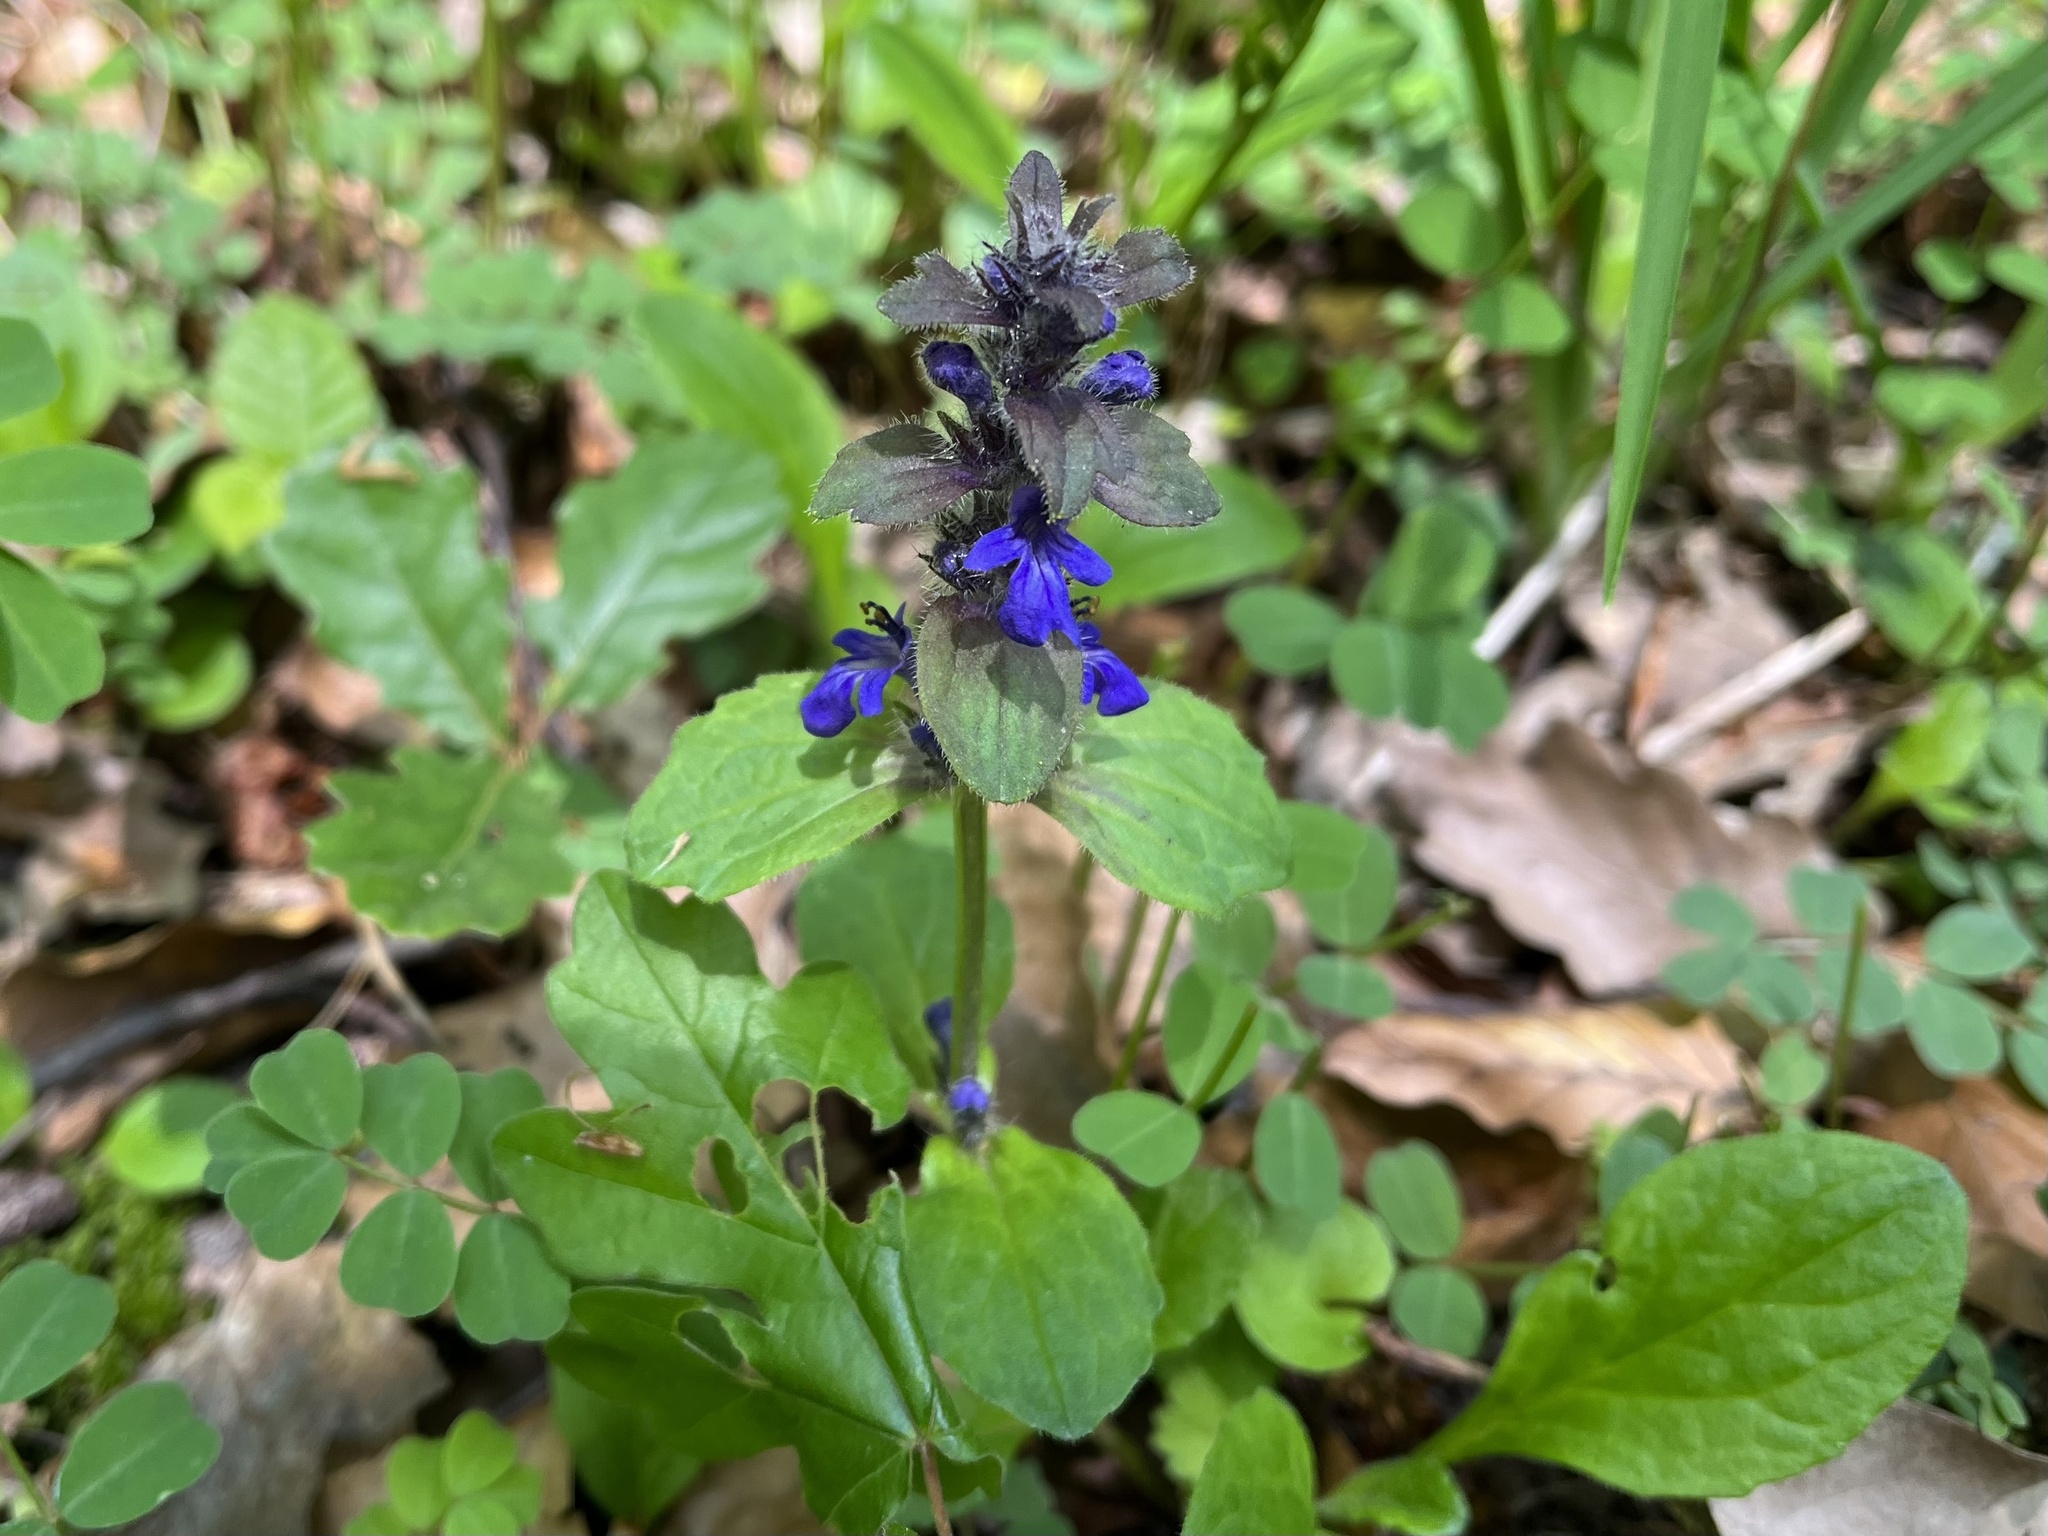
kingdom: Plantae
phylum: Tracheophyta
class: Magnoliopsida
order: Lamiales
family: Lamiaceae
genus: Ajuga
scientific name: Ajuga reptans
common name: Bugle
